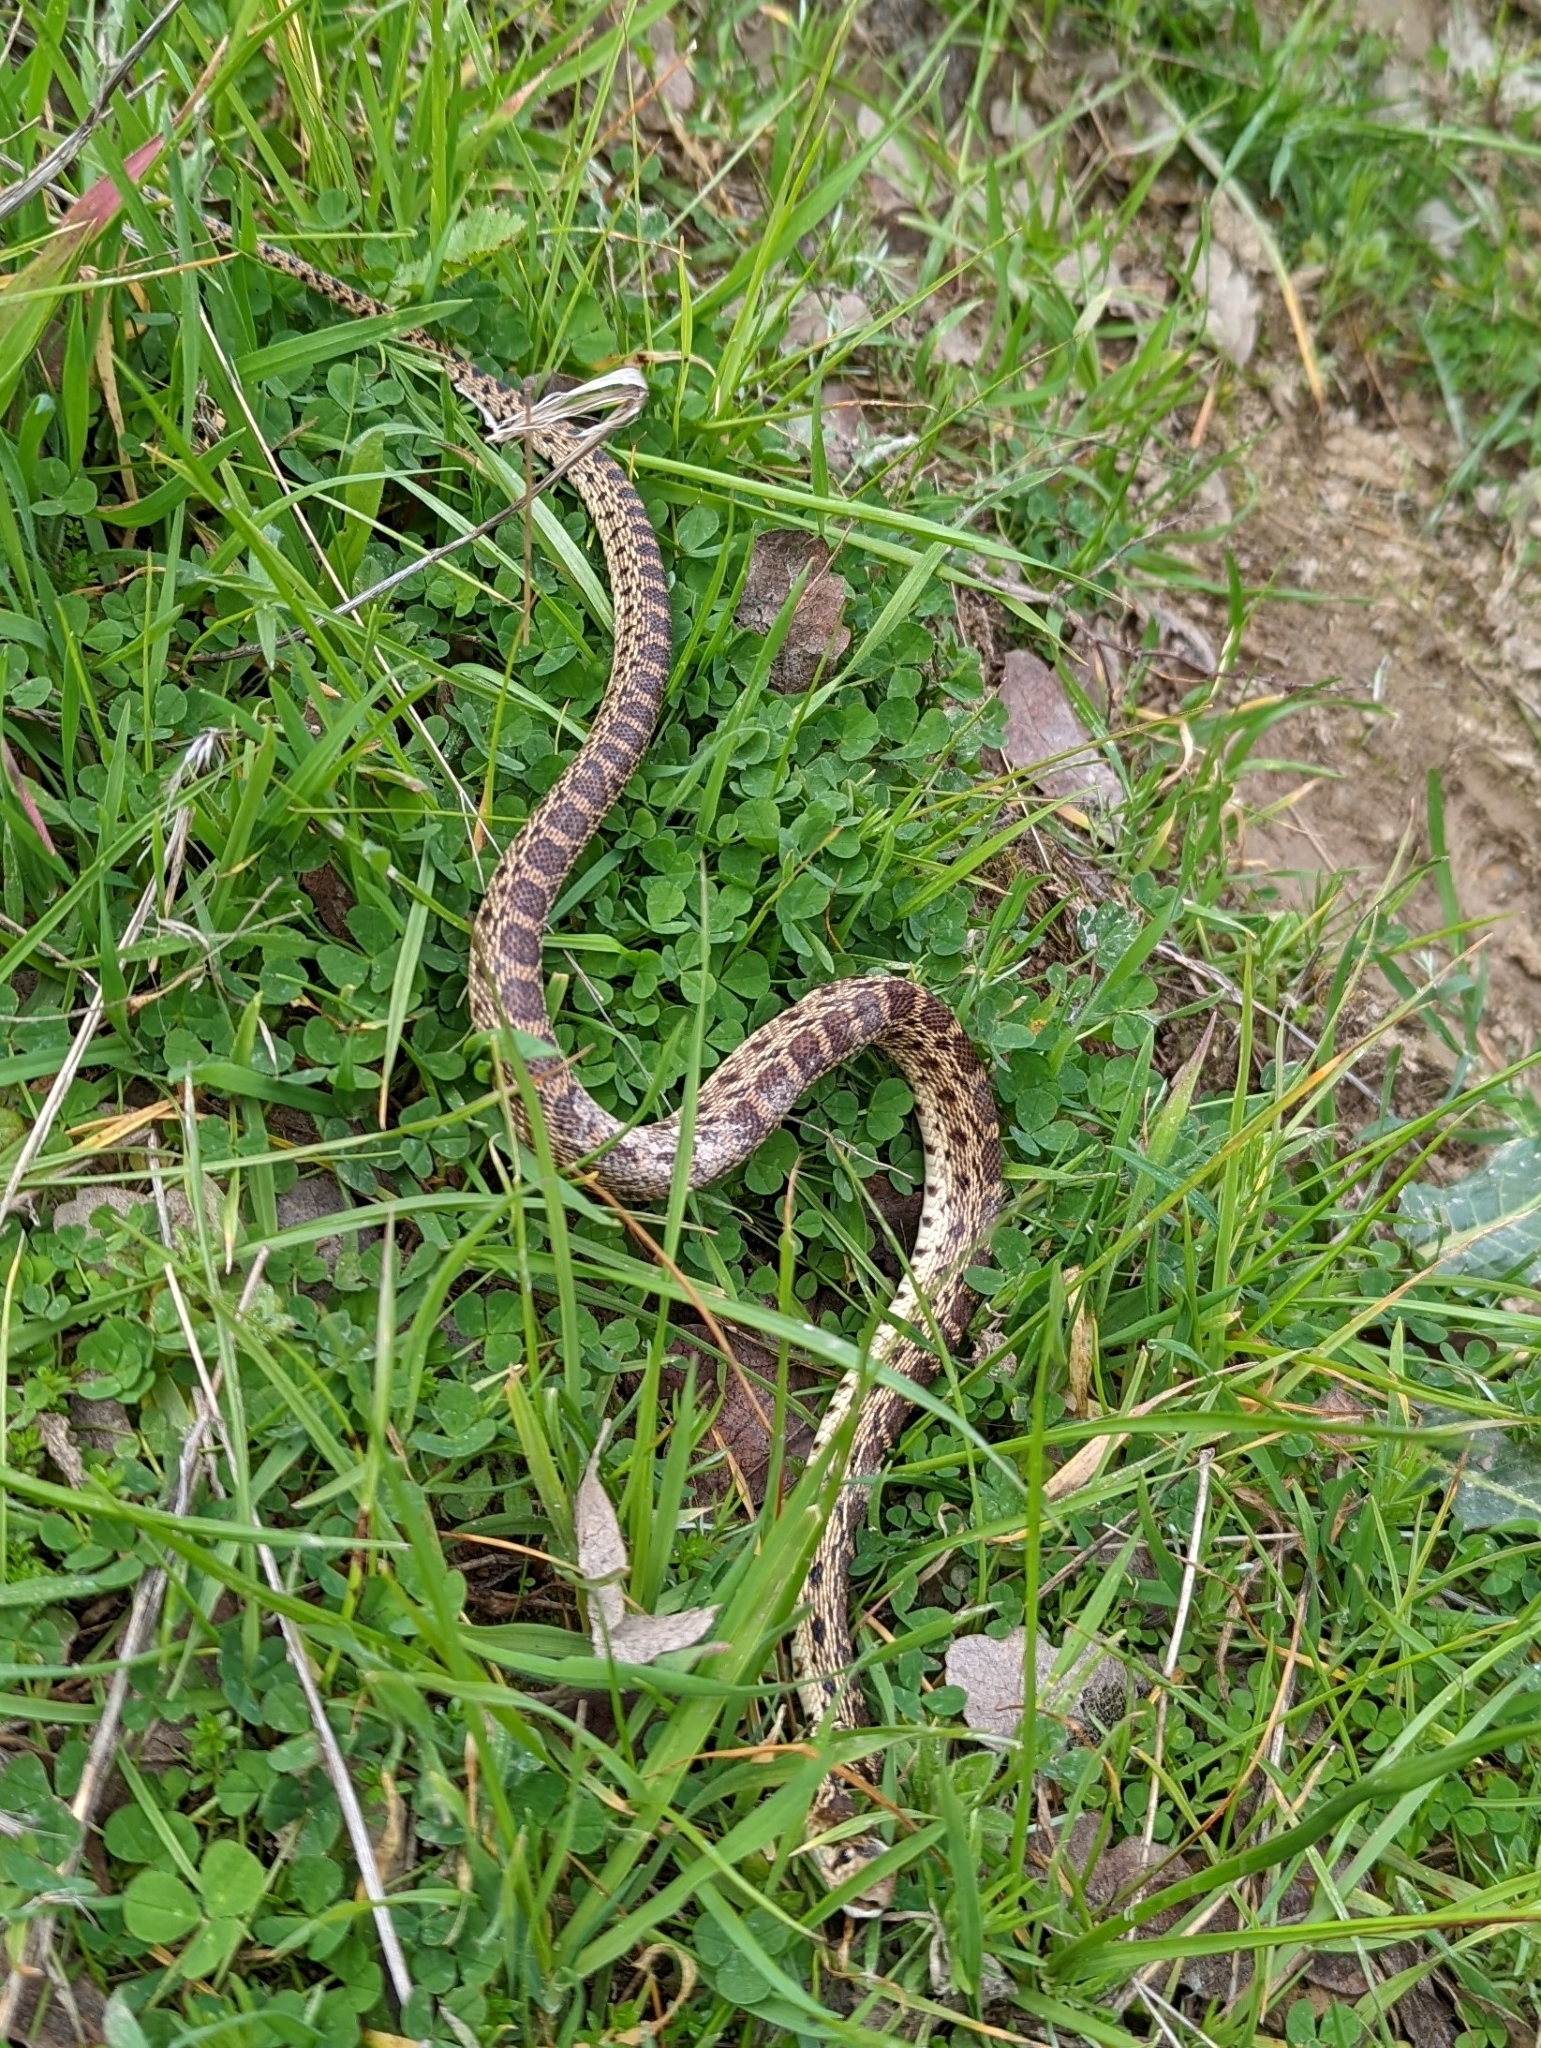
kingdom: Animalia
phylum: Chordata
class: Squamata
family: Colubridae
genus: Pituophis
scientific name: Pituophis catenifer
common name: Gopher snake
